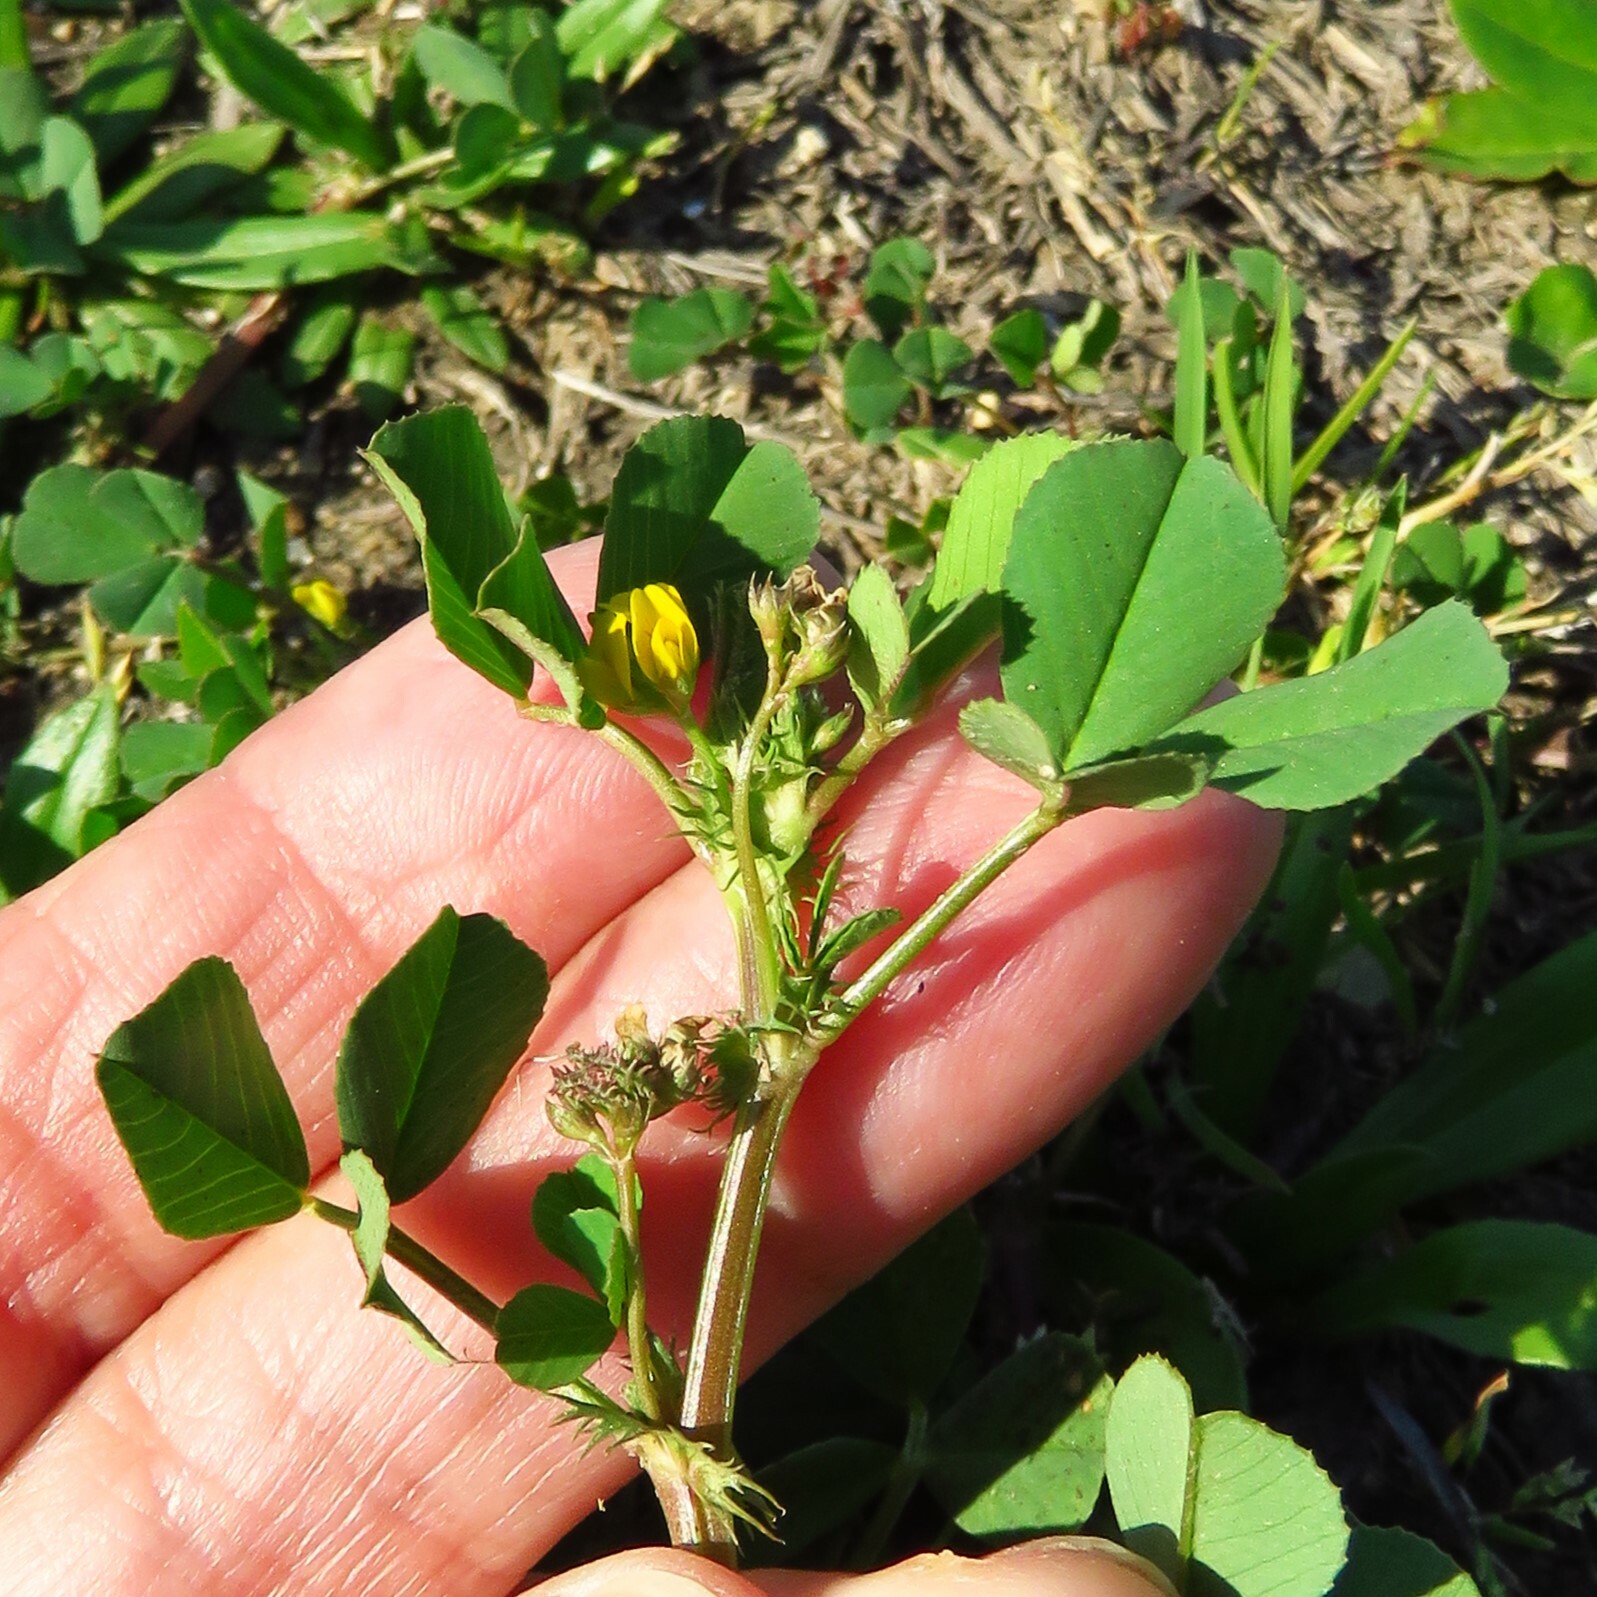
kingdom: Plantae
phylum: Tracheophyta
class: Magnoliopsida
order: Fabales
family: Fabaceae
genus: Medicago
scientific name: Medicago polymorpha
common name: Burclover
